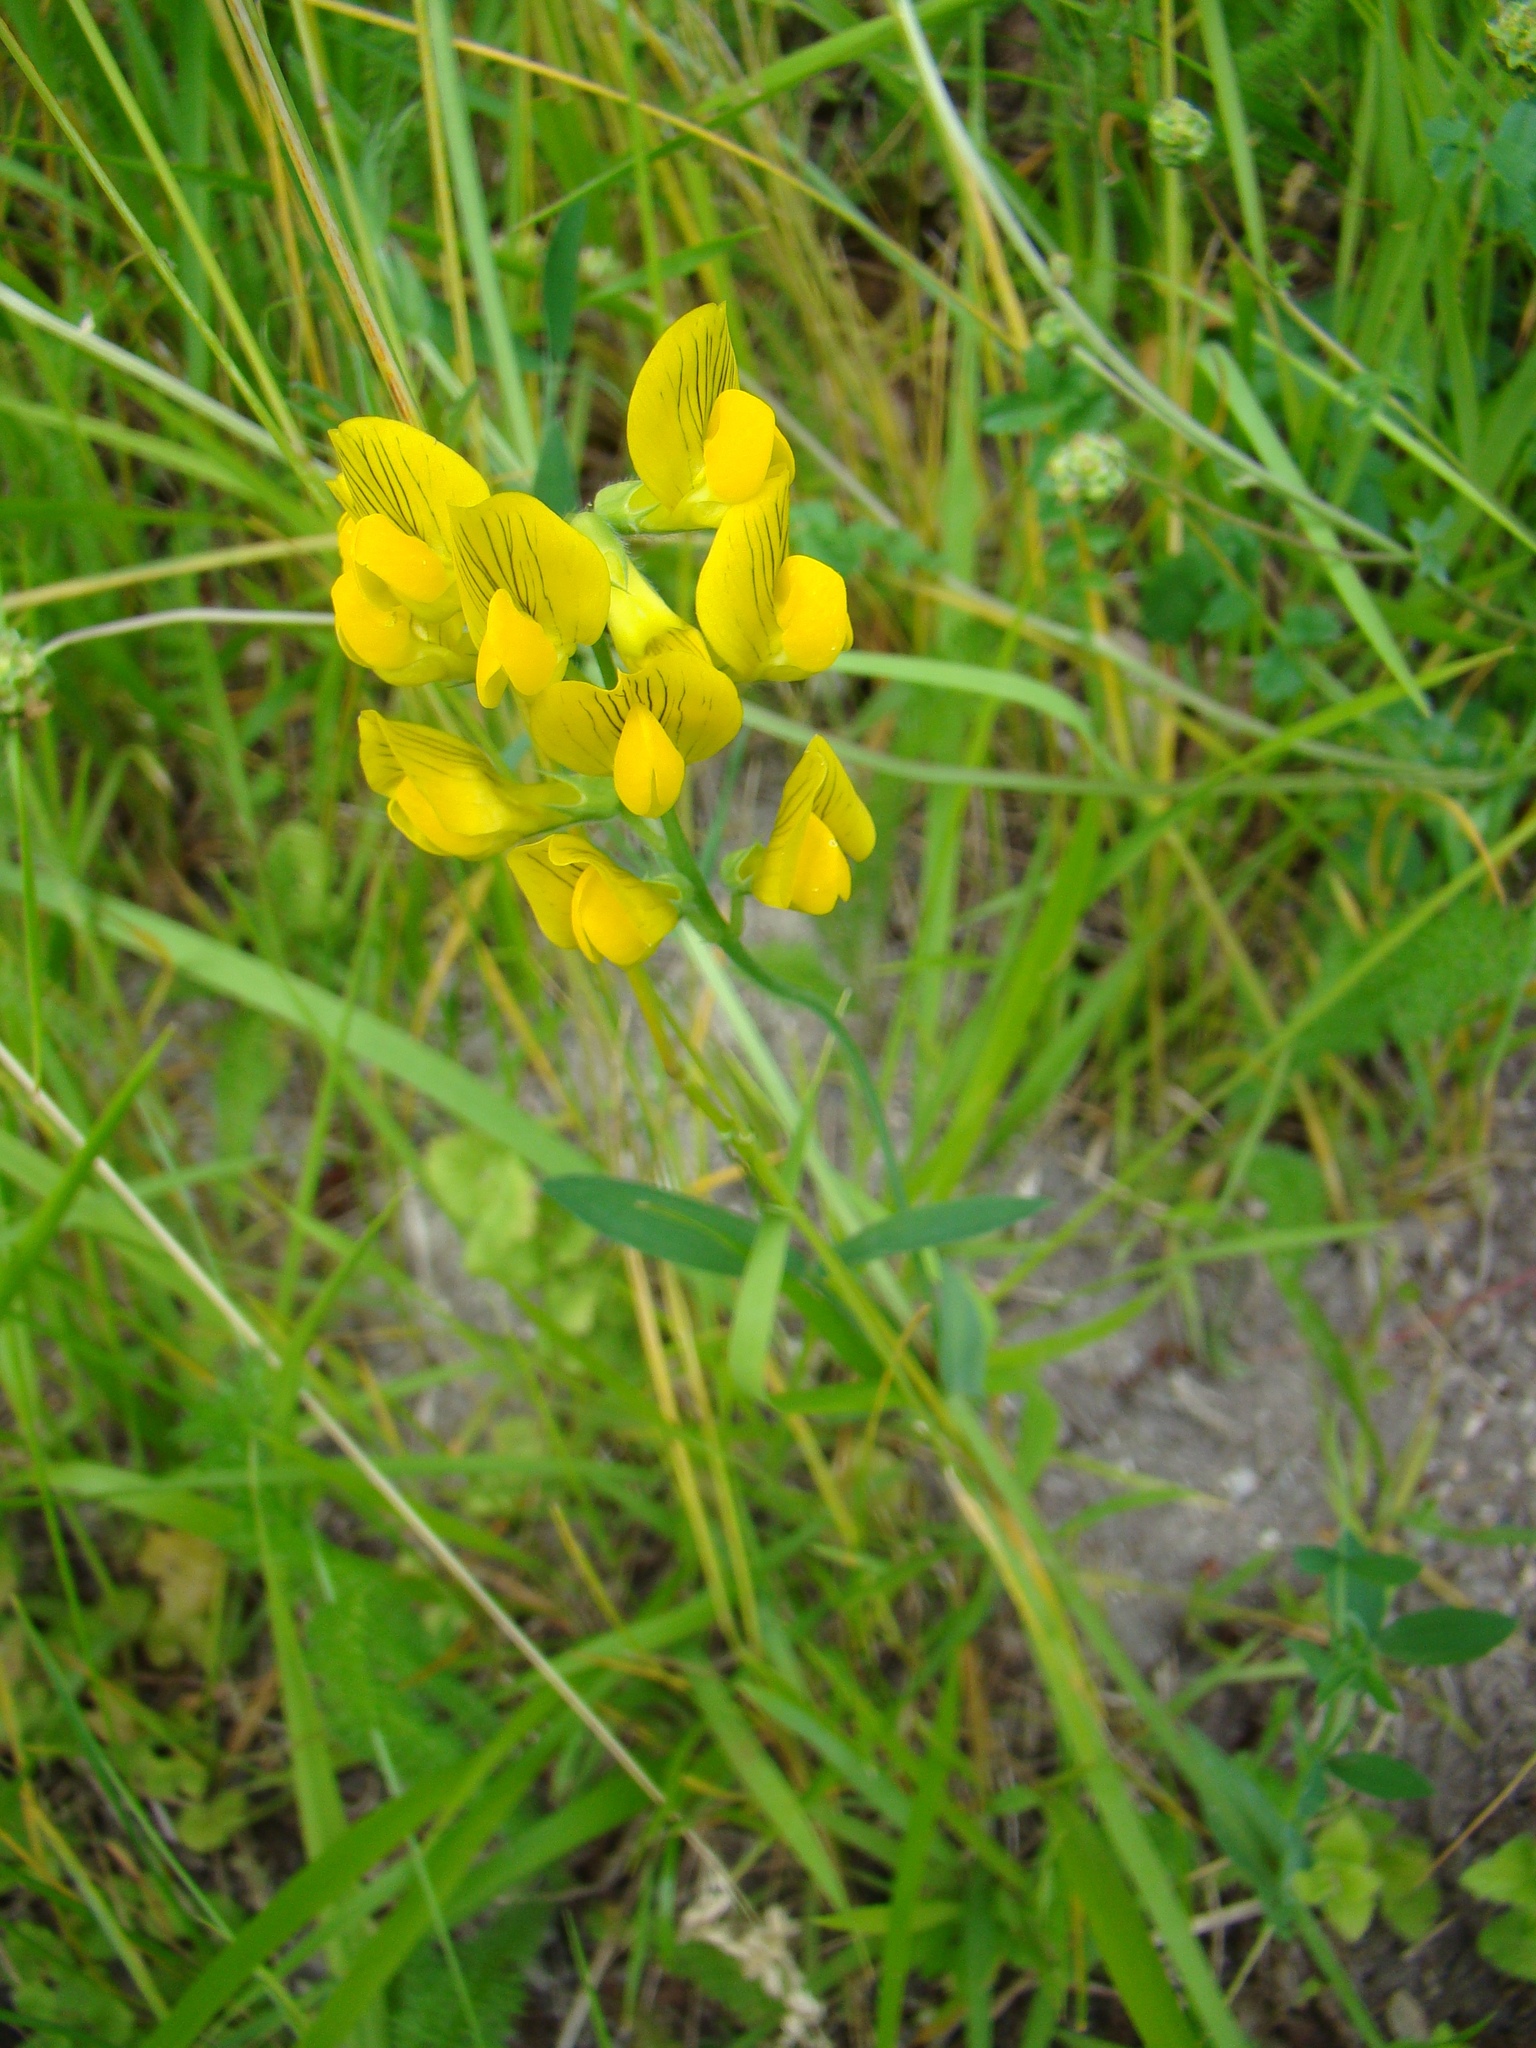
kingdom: Plantae
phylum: Tracheophyta
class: Magnoliopsida
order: Fabales
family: Fabaceae
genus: Lathyrus
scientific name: Lathyrus pratensis
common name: Meadow vetchling
